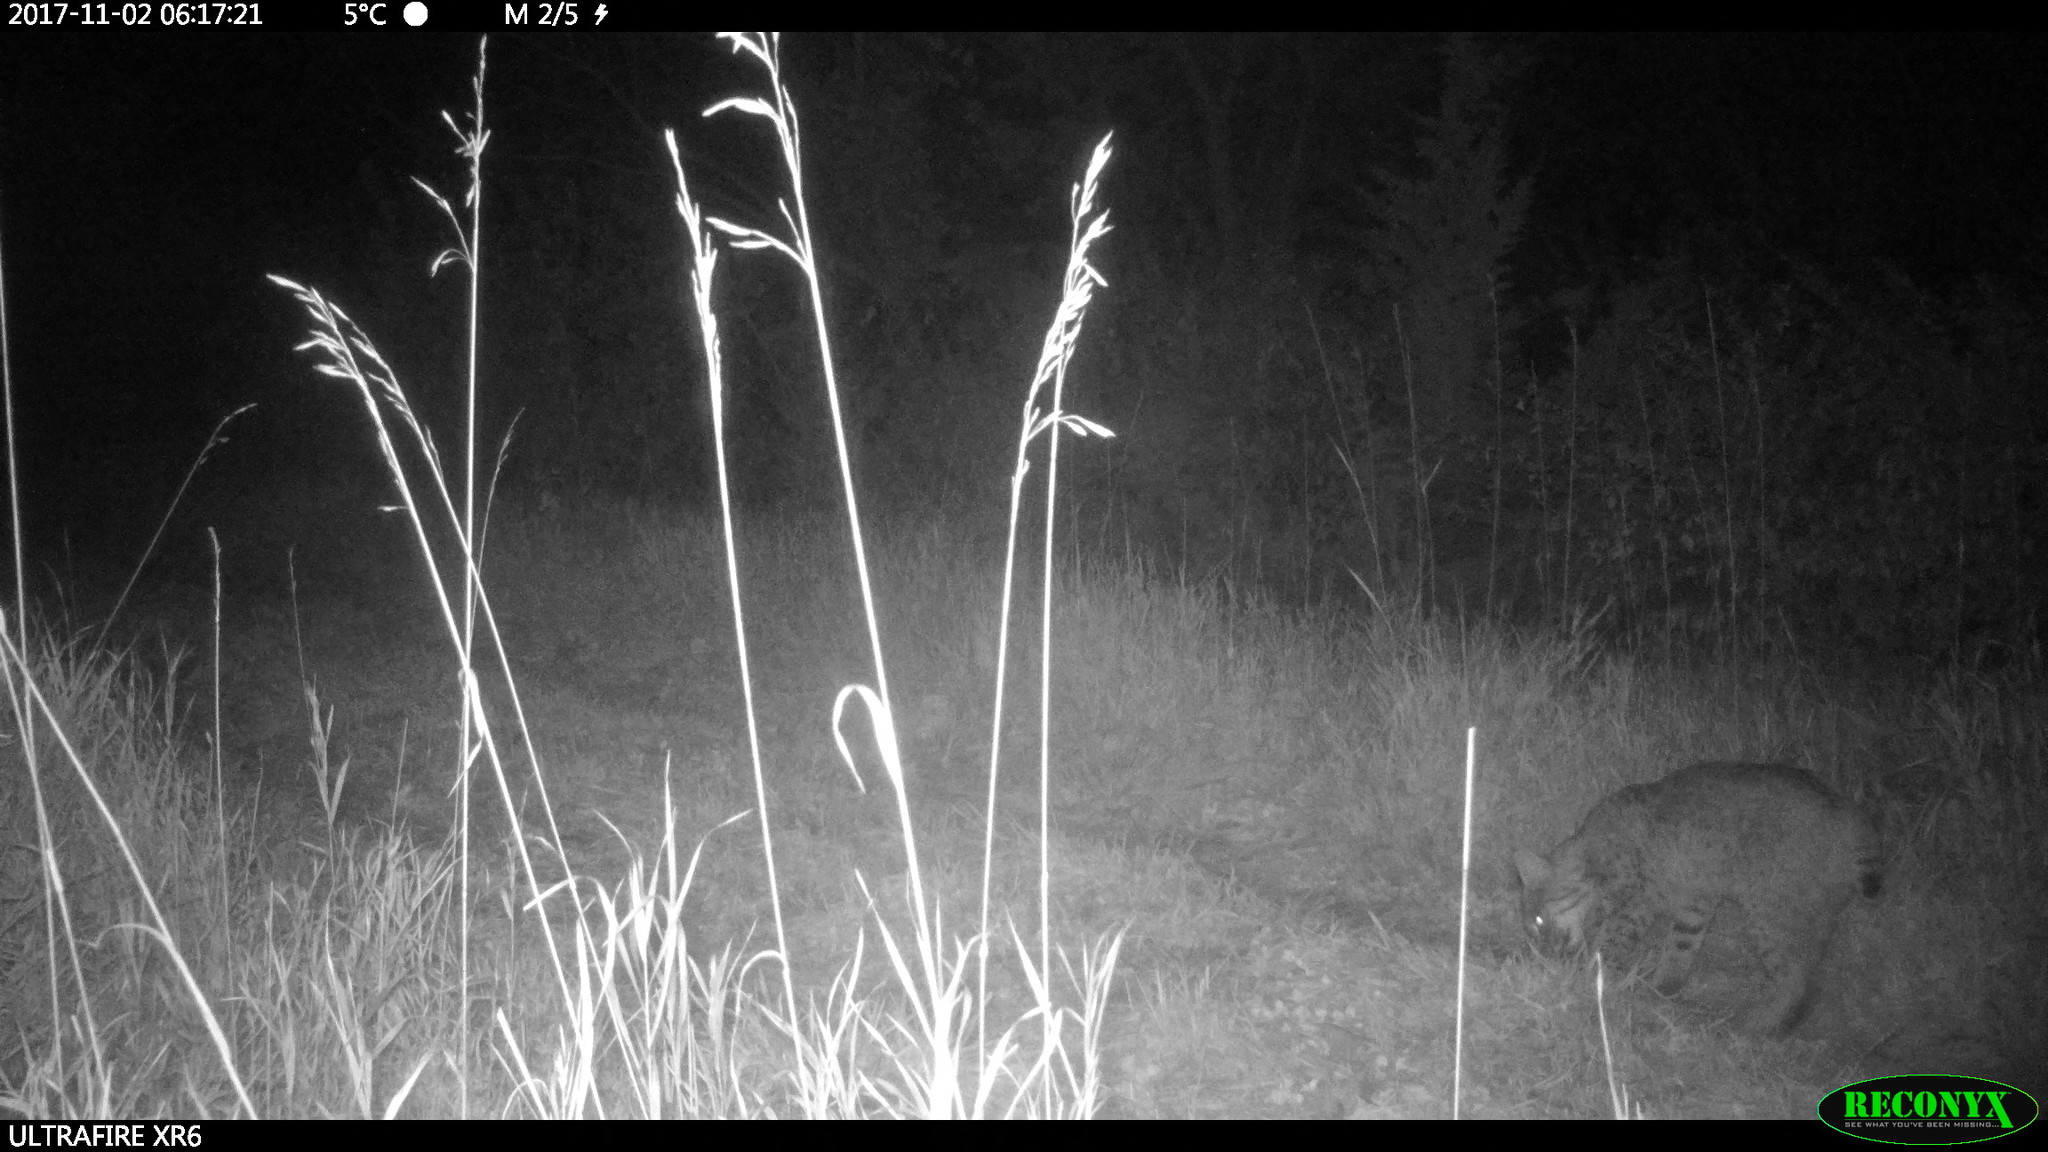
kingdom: Animalia
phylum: Chordata
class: Mammalia
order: Carnivora
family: Felidae
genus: Lynx
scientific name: Lynx rufus
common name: Bobcat
